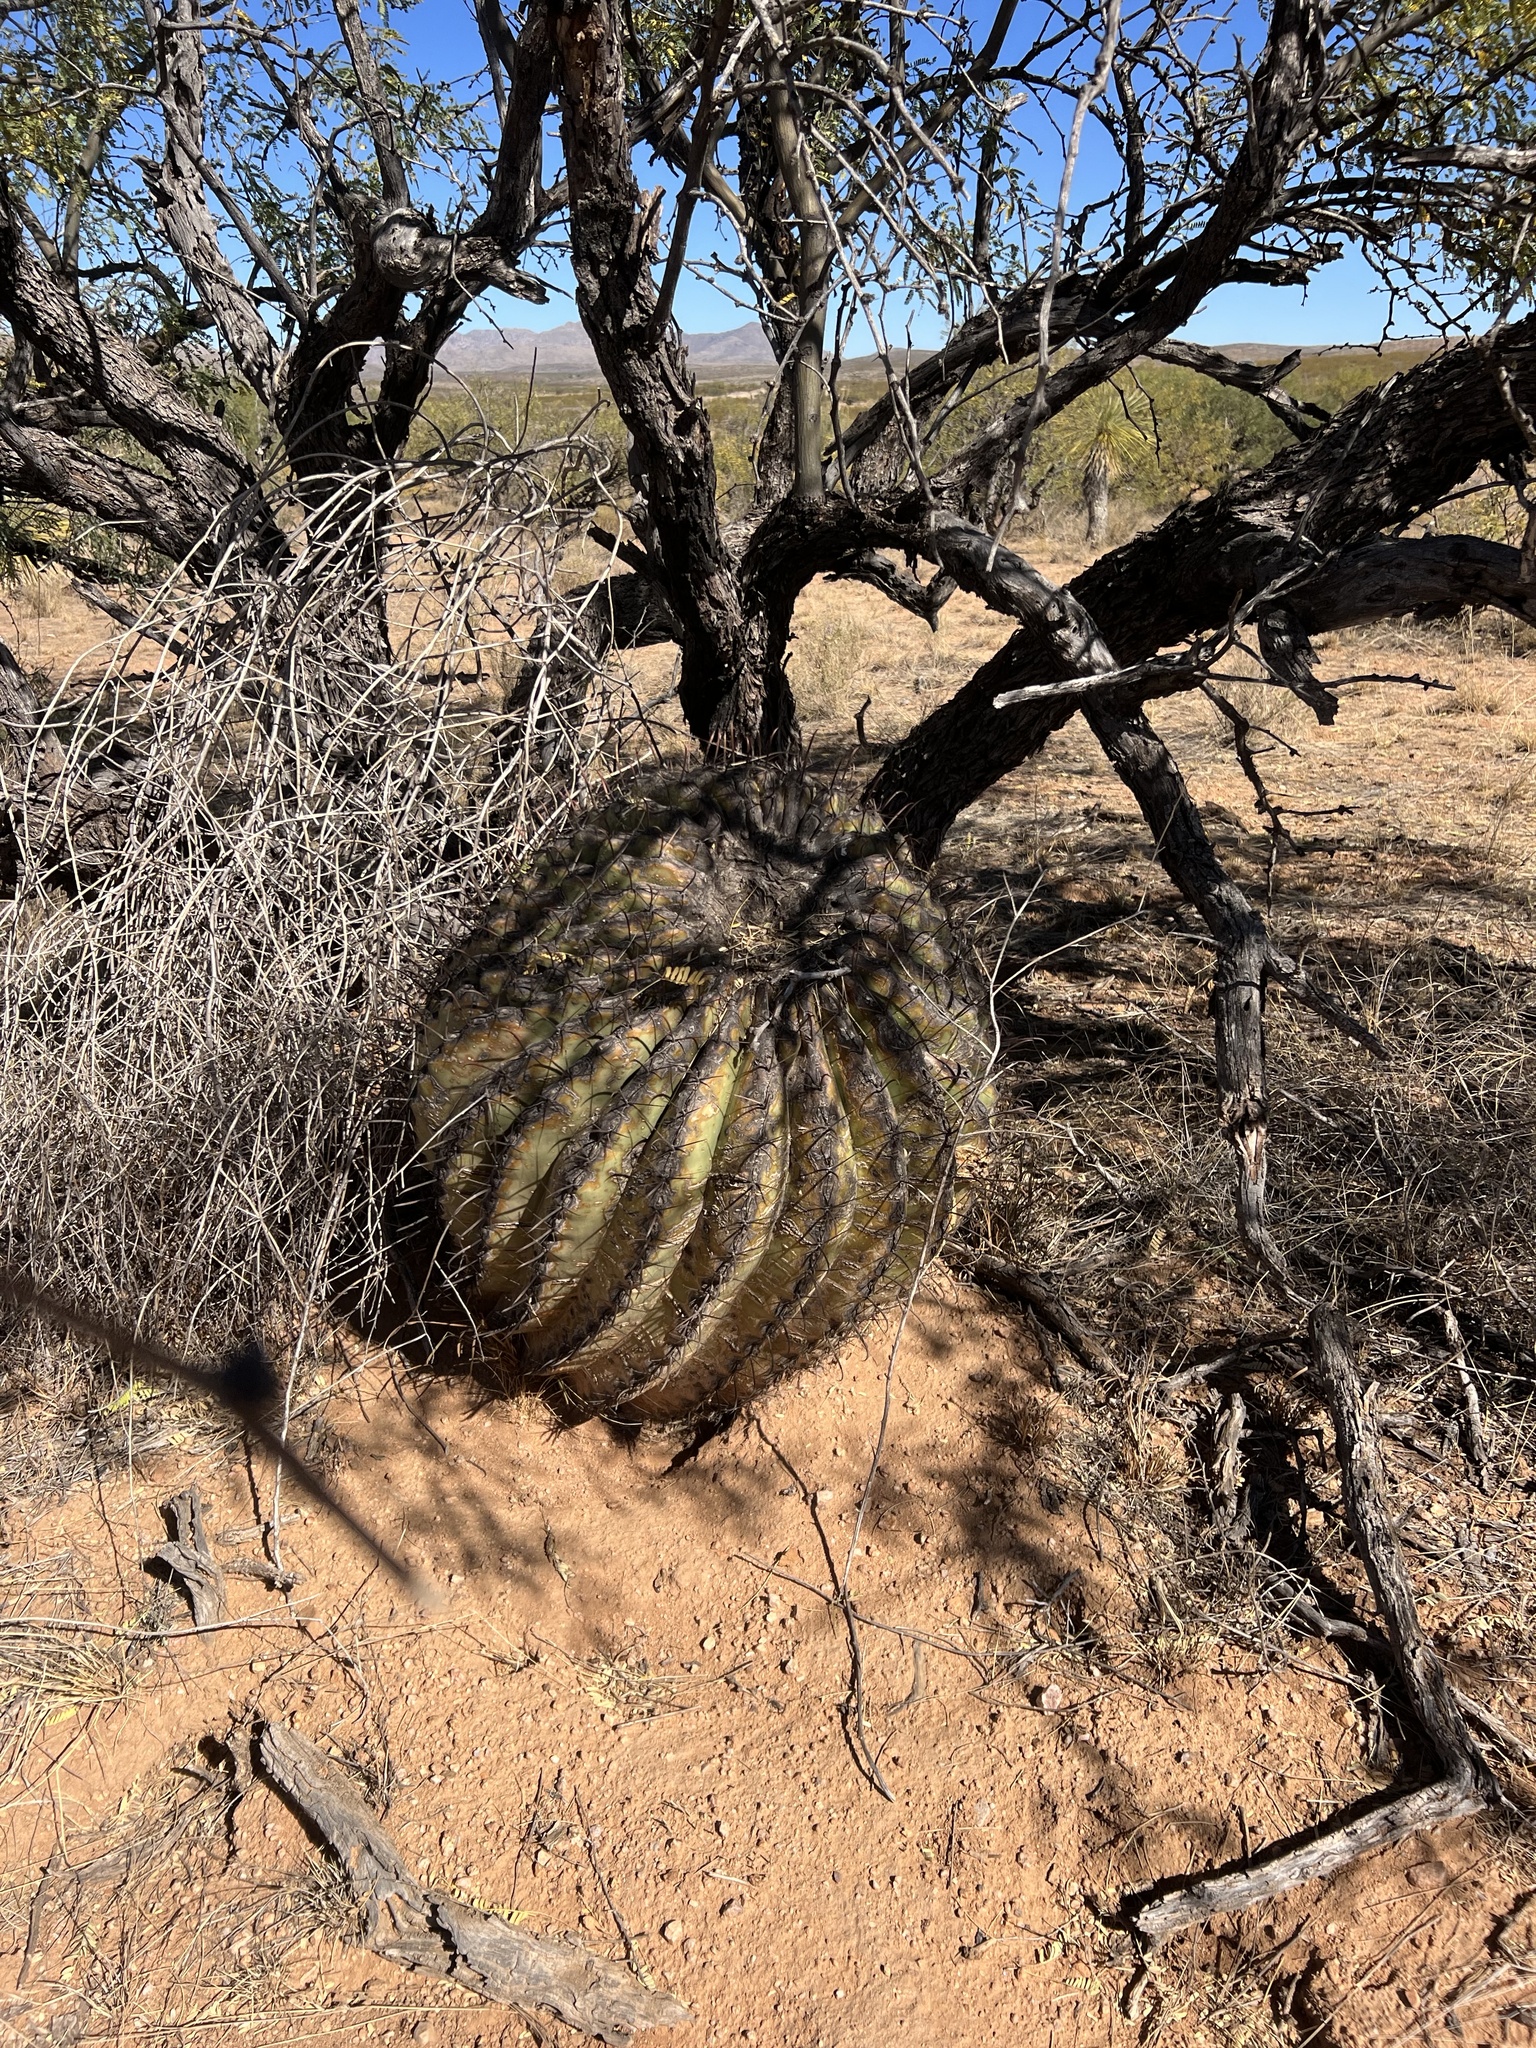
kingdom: Plantae
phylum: Tracheophyta
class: Magnoliopsida
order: Caryophyllales
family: Cactaceae
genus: Ferocactus
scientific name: Ferocactus wislizeni
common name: Candy barrel cactus
